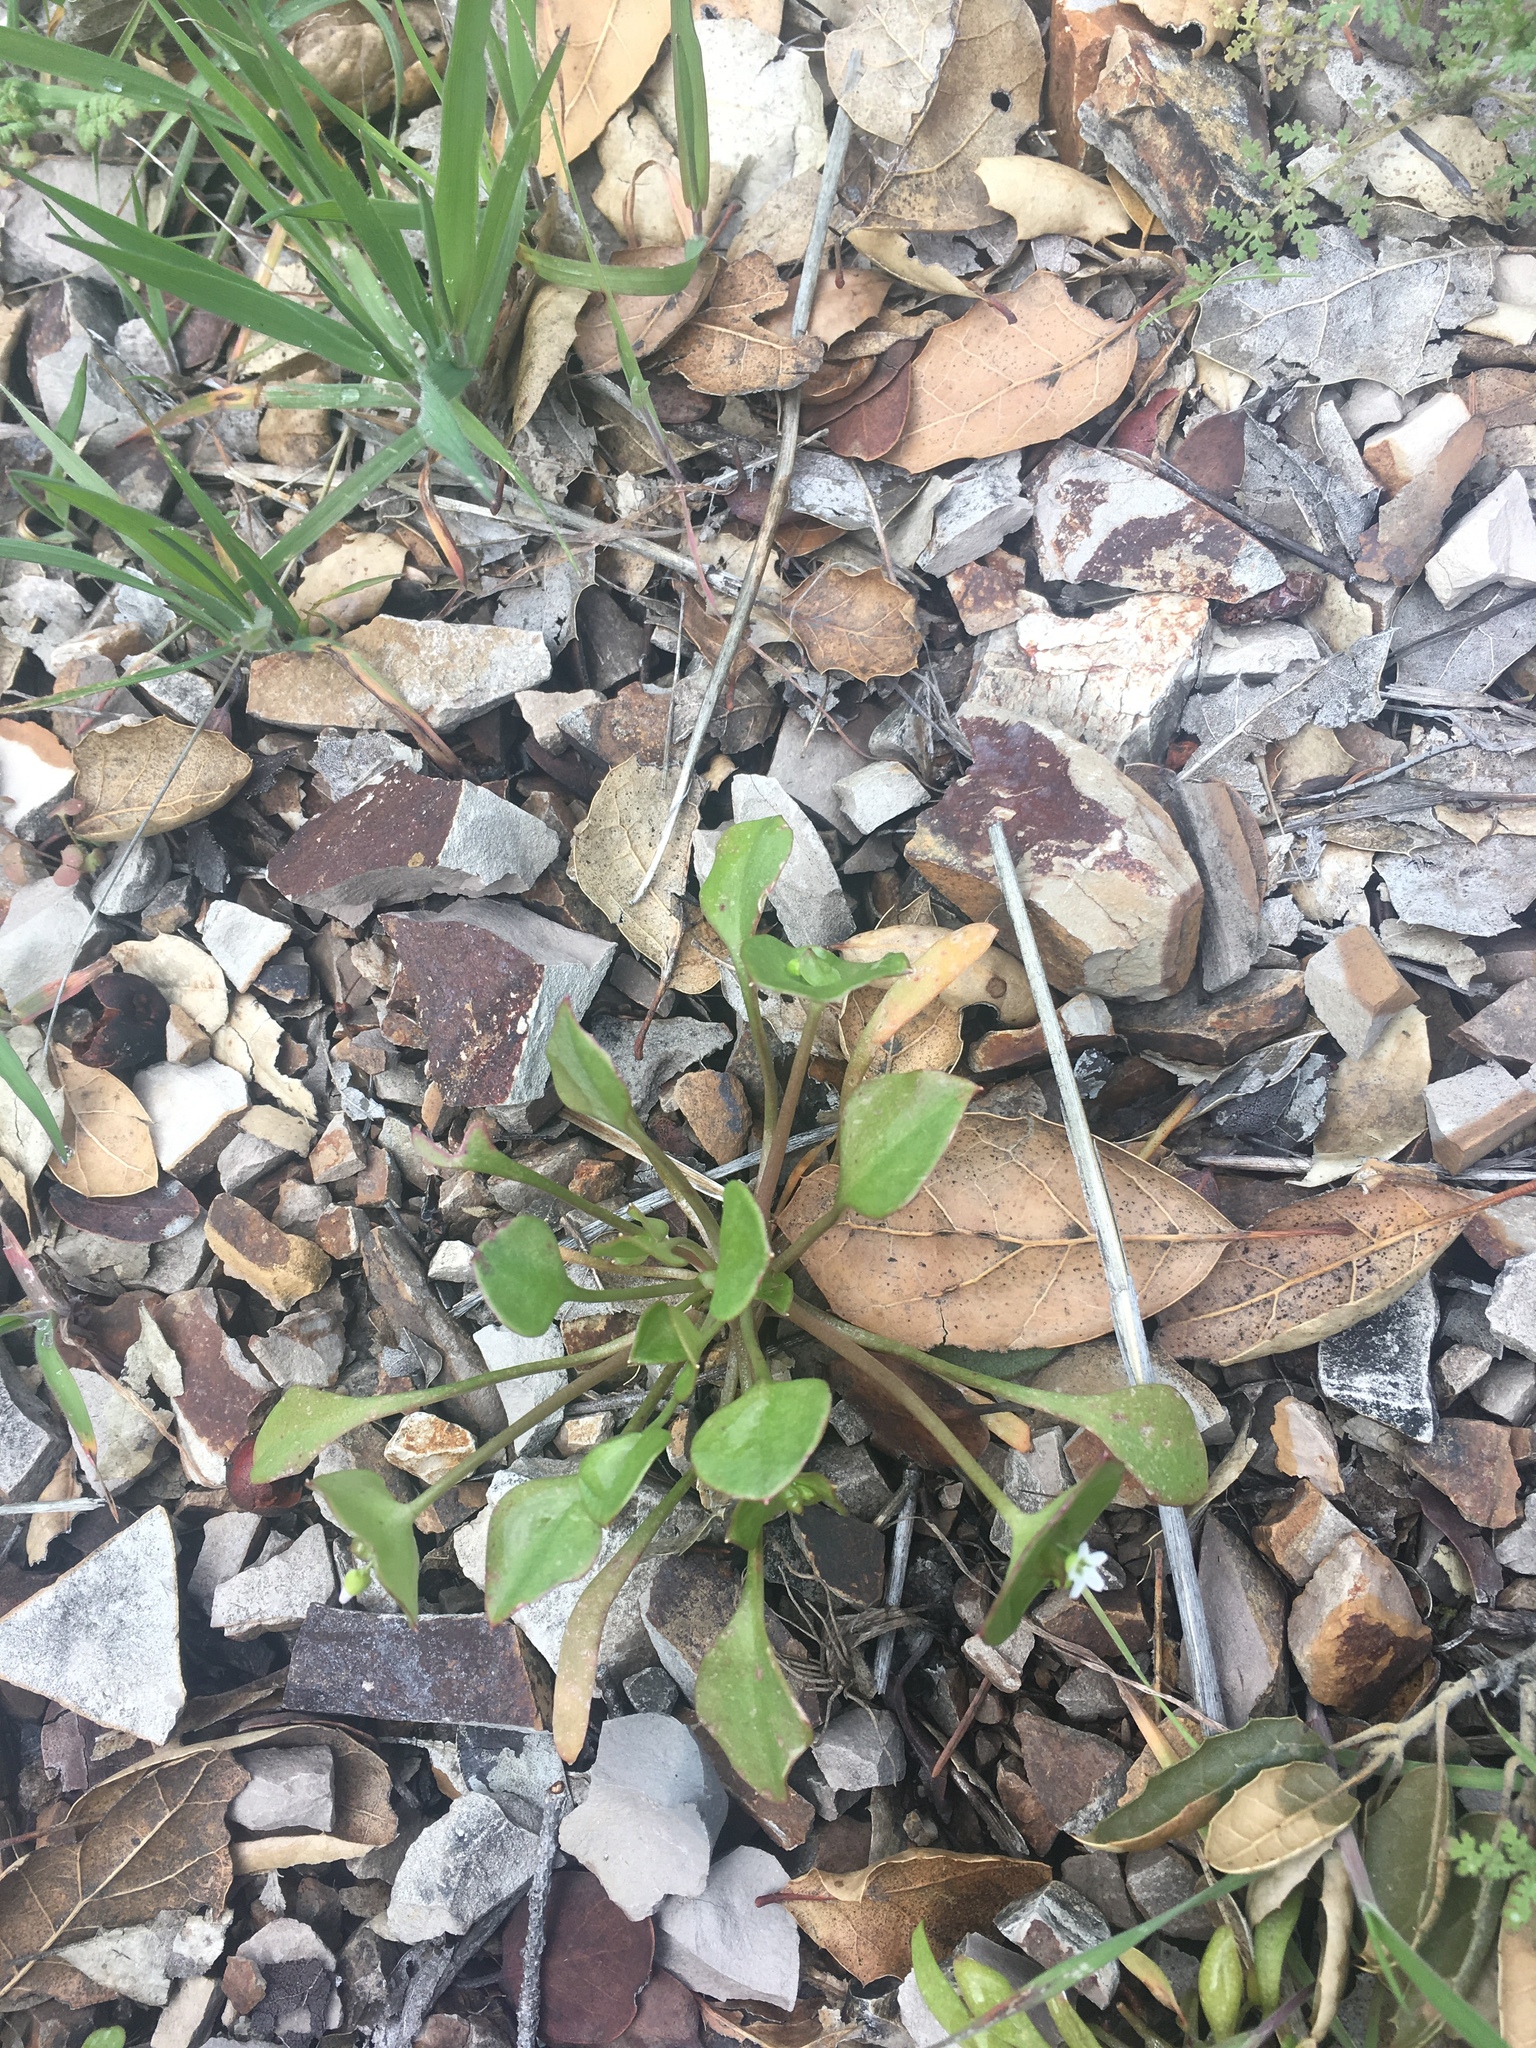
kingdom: Plantae
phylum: Tracheophyta
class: Magnoliopsida
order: Caryophyllales
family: Montiaceae
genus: Claytonia
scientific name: Claytonia perfoliata
